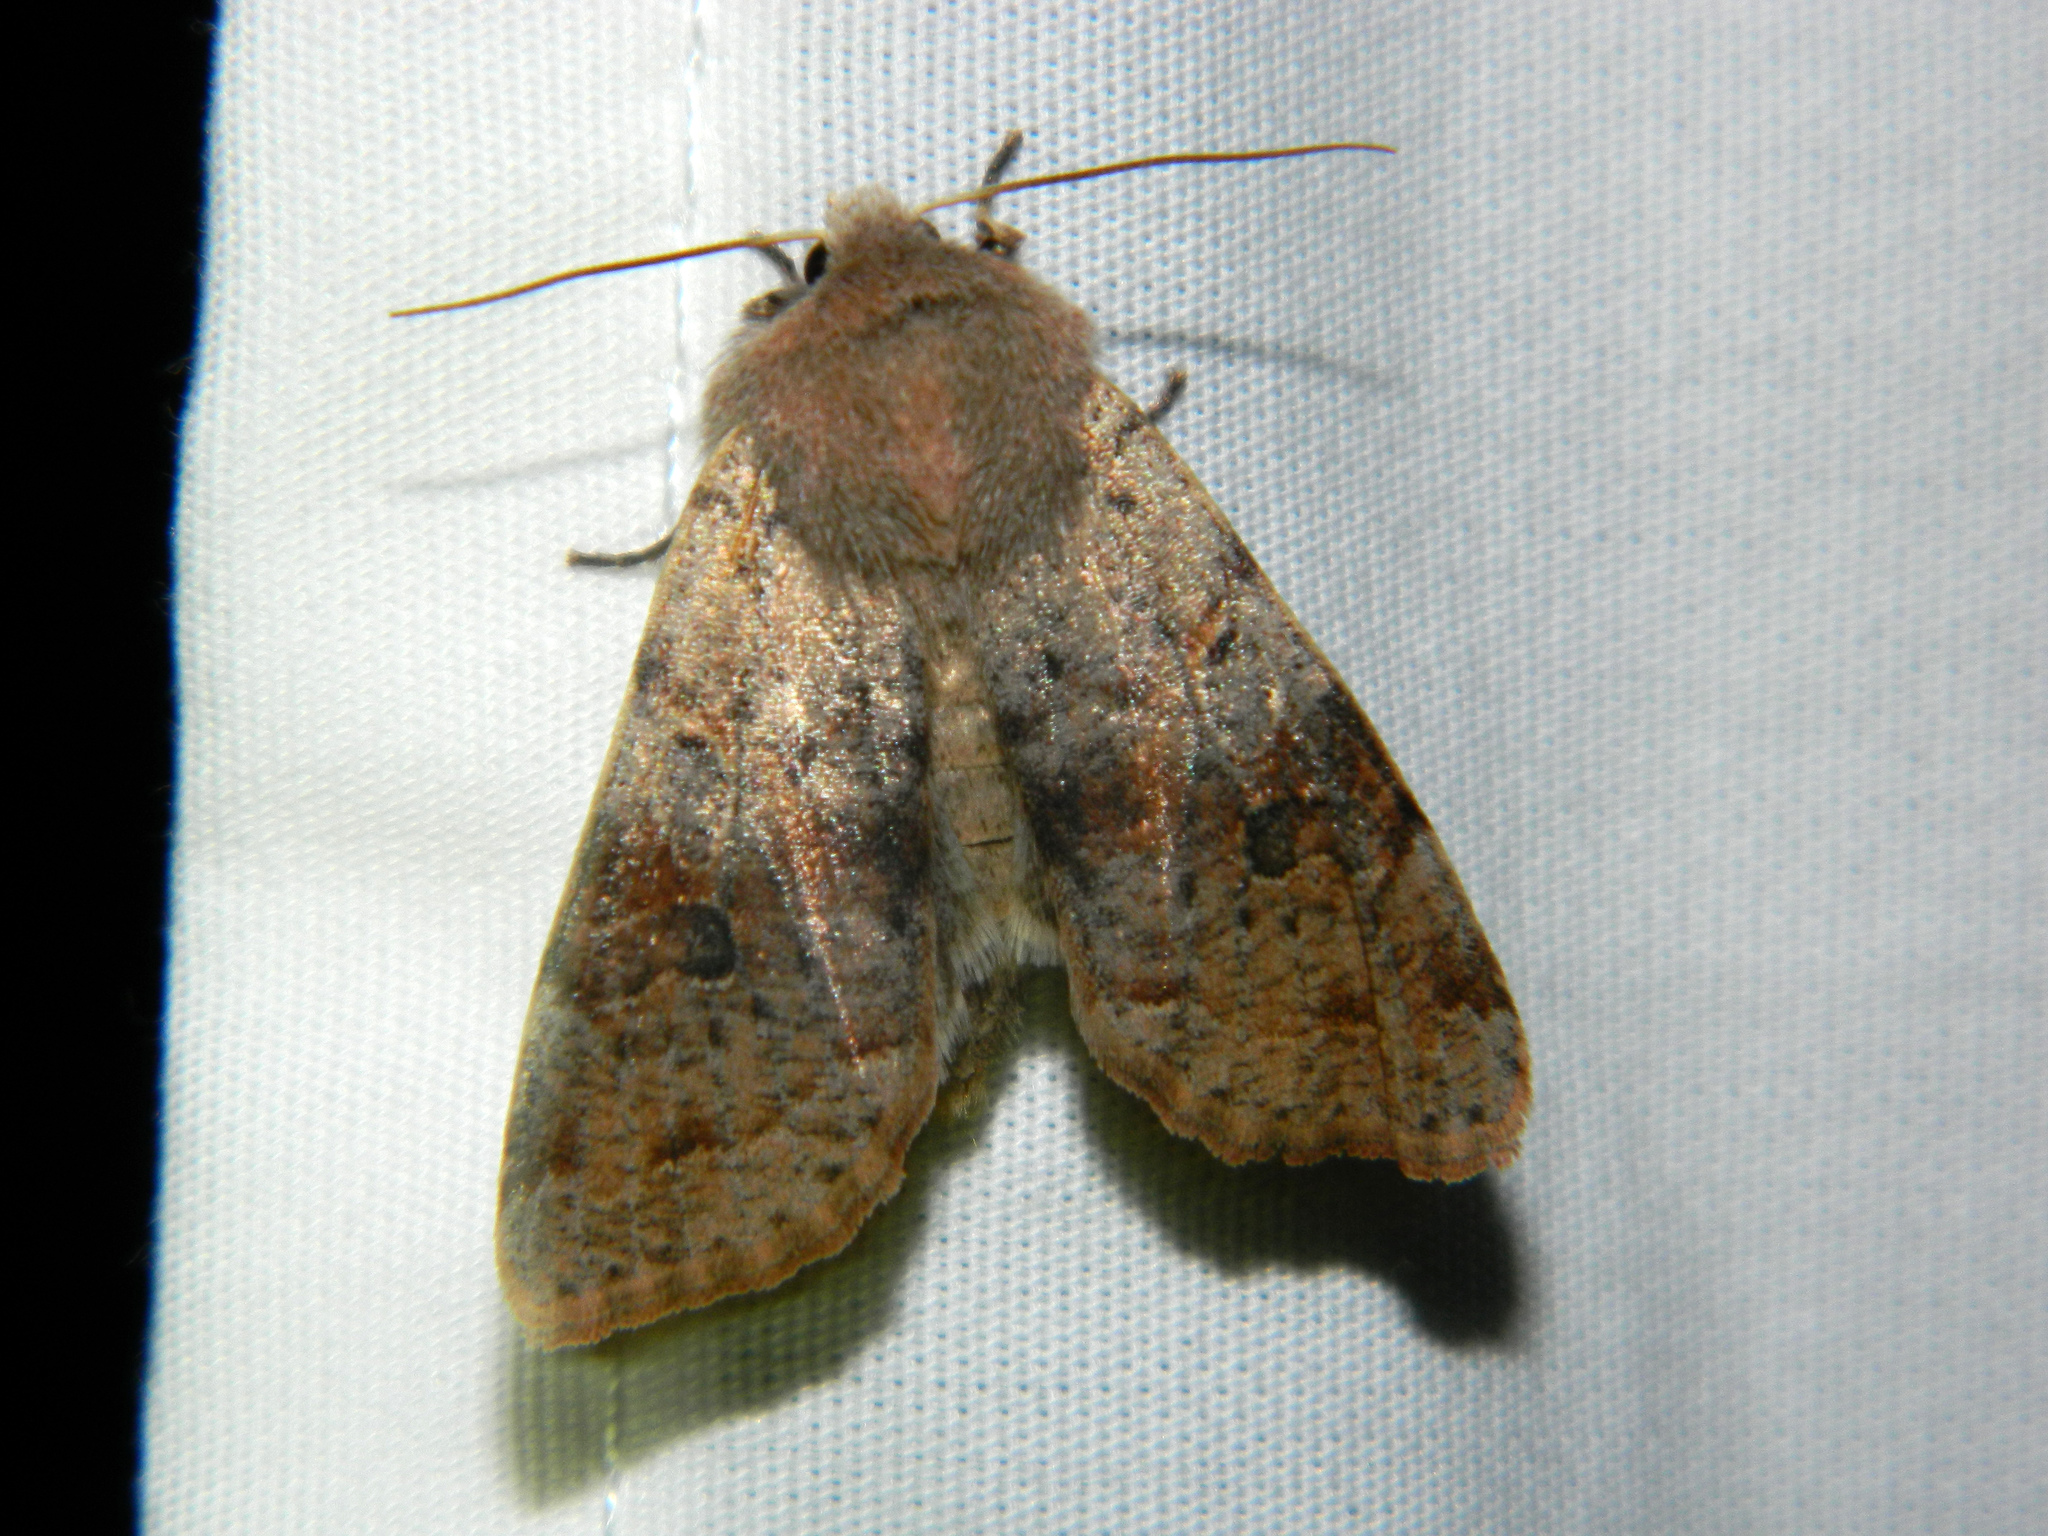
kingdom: Animalia
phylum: Arthropoda
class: Insecta
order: Lepidoptera
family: Noctuidae
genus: Orthosia
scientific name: Orthosia hibisci
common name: Green fruitworm
